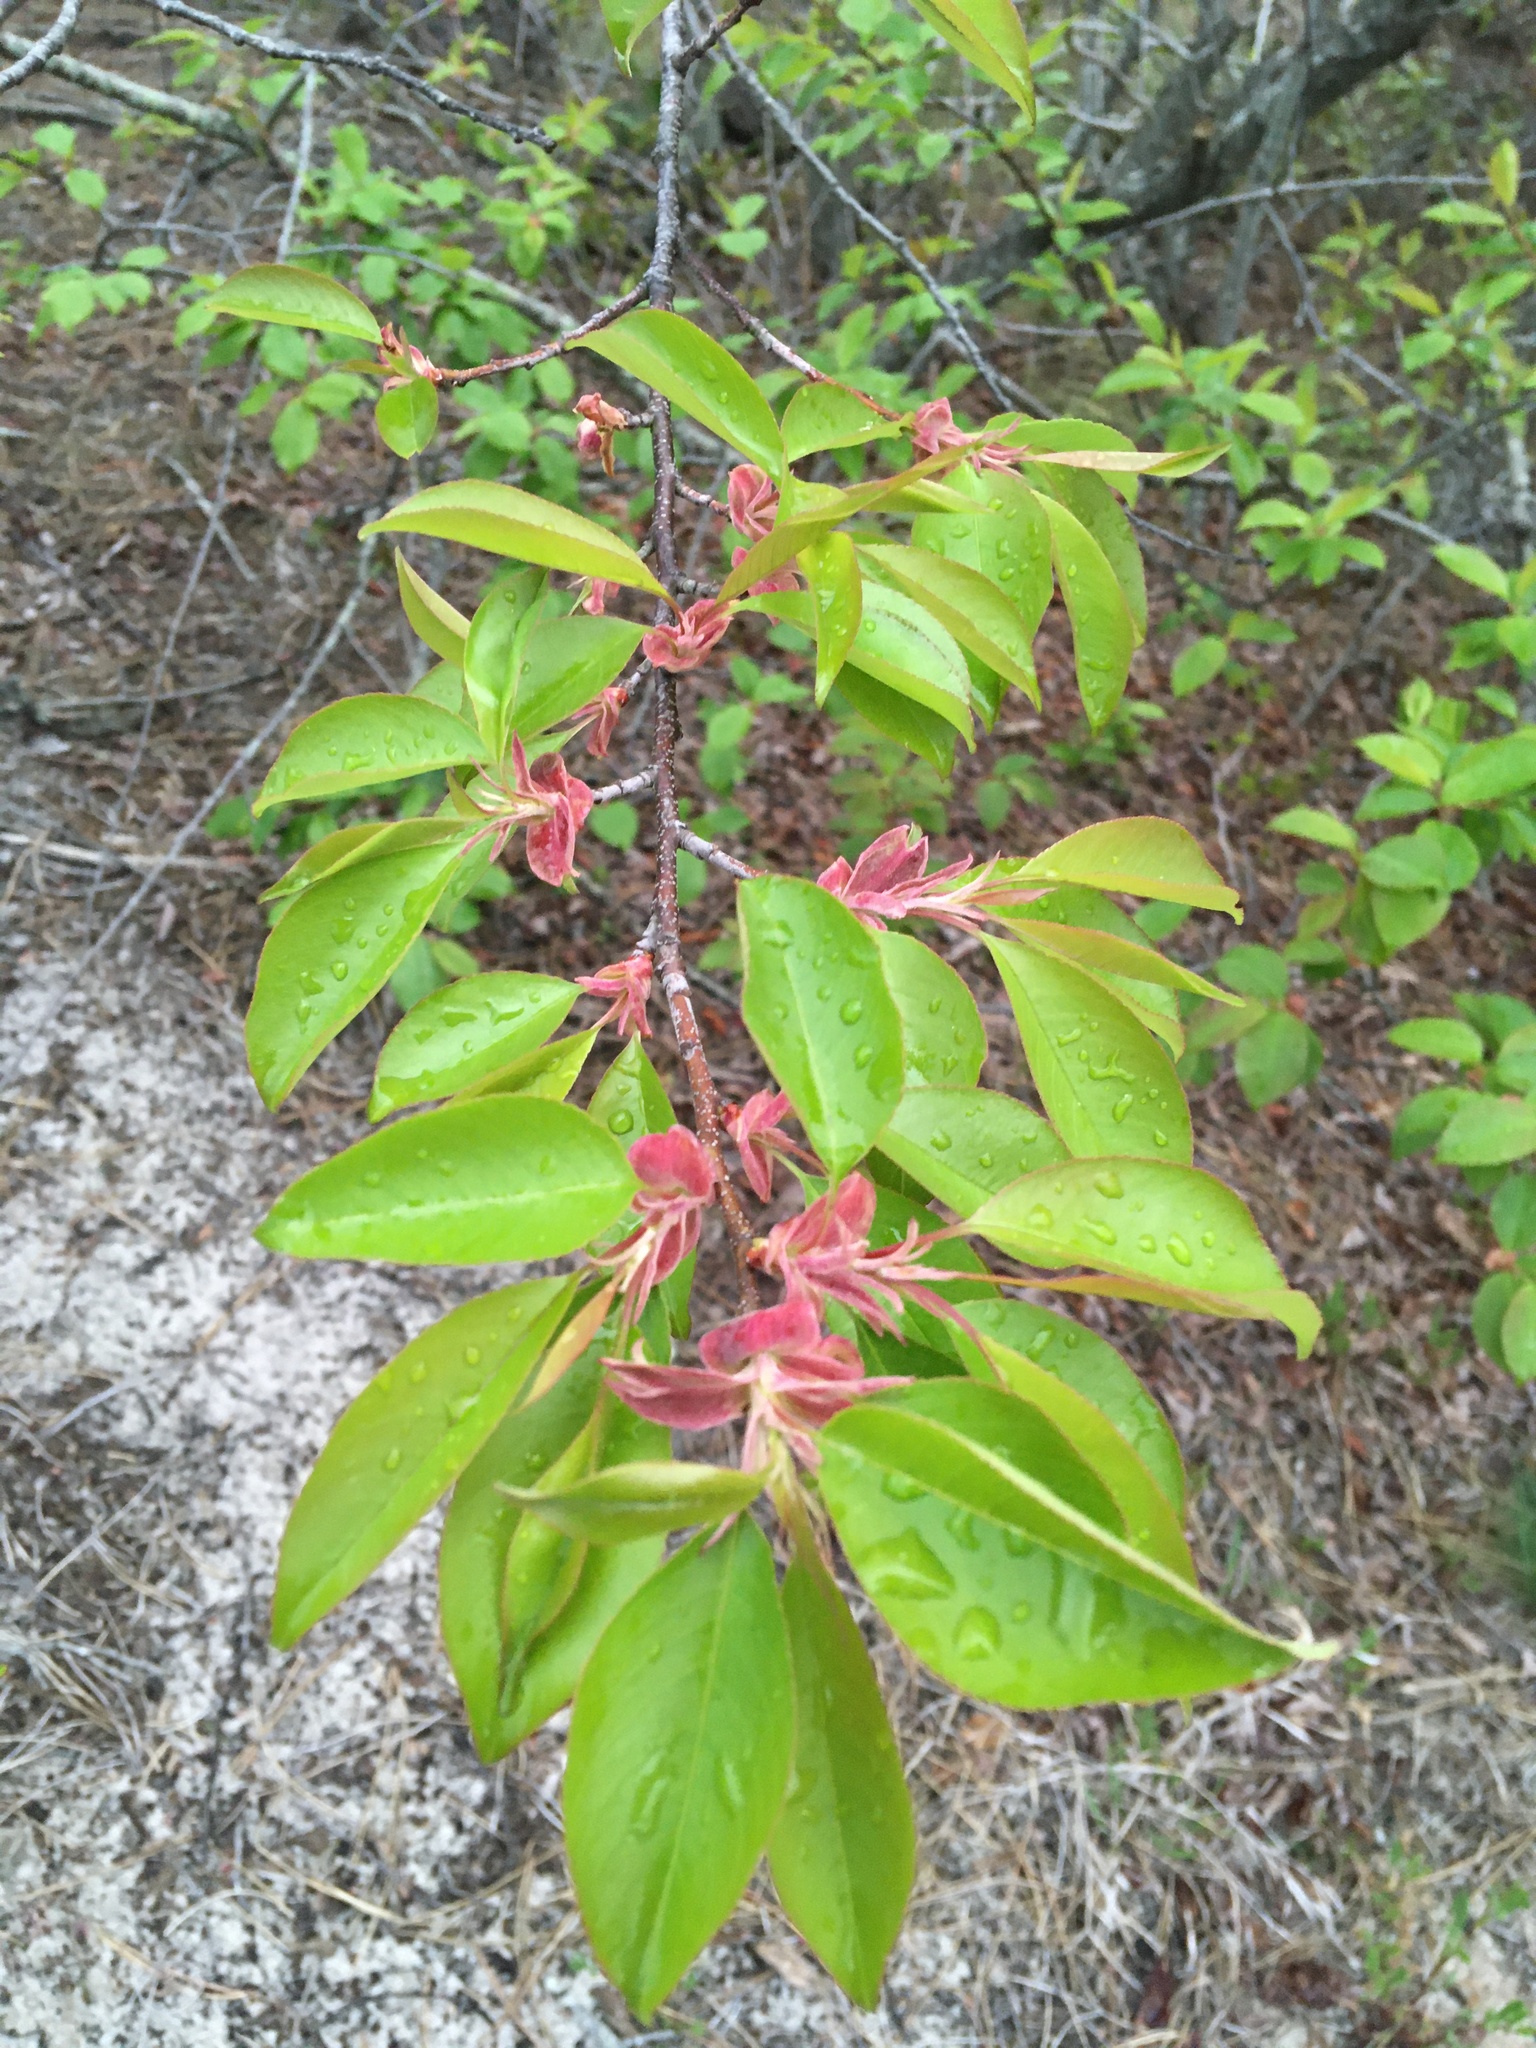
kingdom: Plantae
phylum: Tracheophyta
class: Magnoliopsida
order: Rosales
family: Rosaceae
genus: Prunus
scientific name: Prunus serotina
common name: Black cherry
